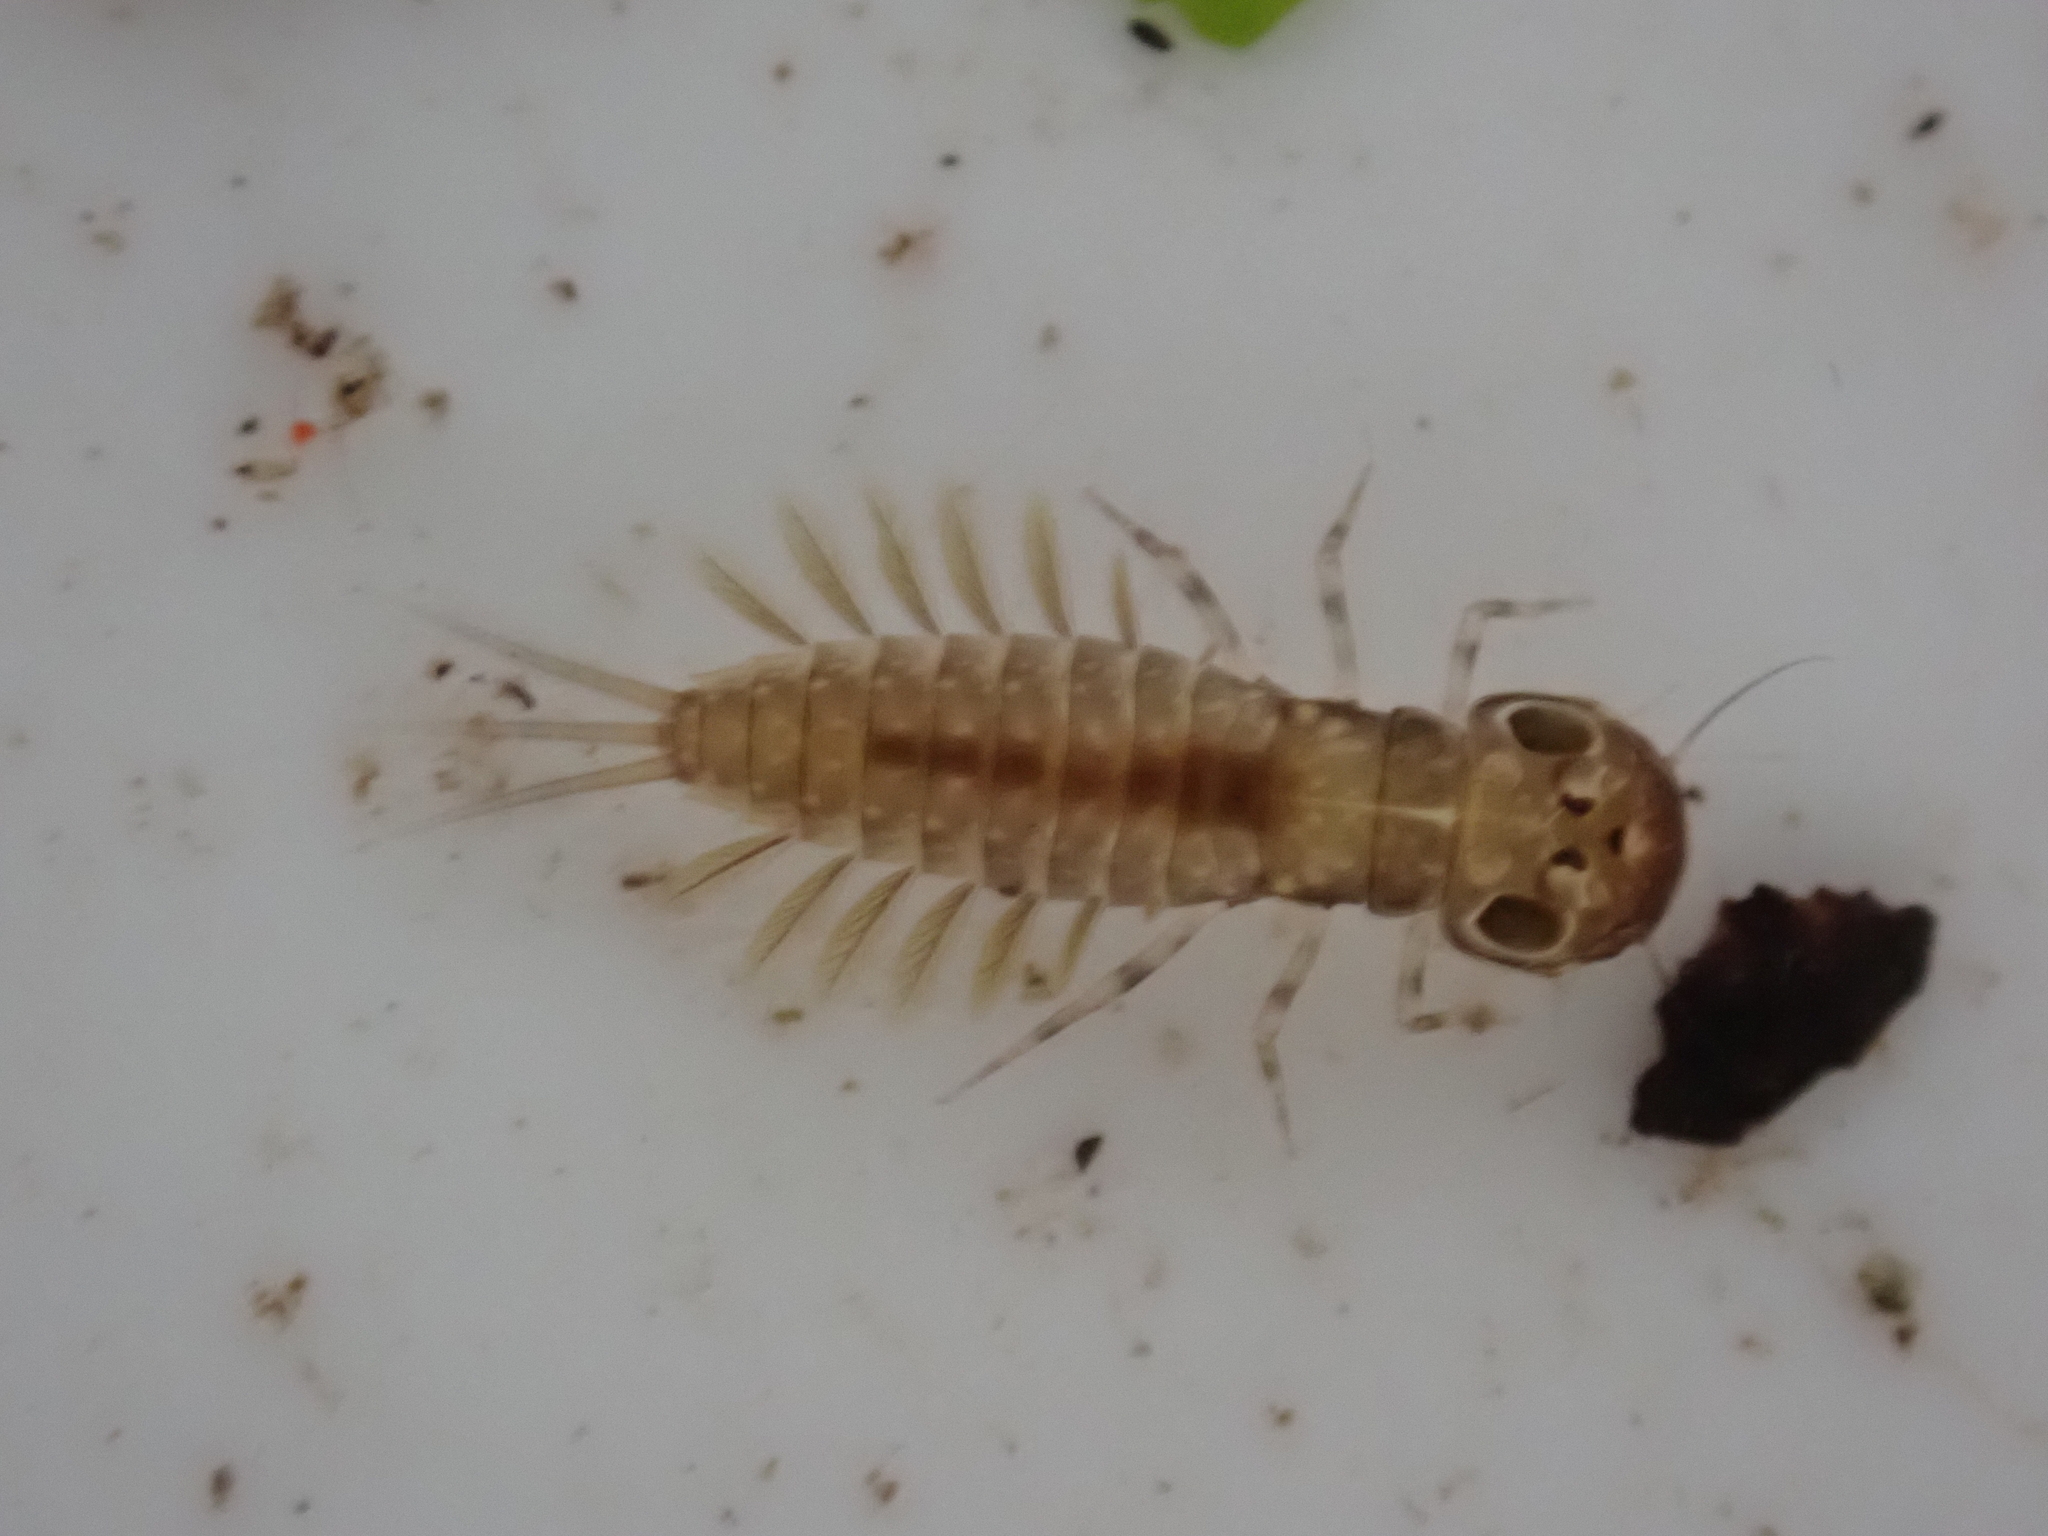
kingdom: Animalia
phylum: Arthropoda
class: Insecta
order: Ephemeroptera
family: Ameletopsidae
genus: Ameletopsis
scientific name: Ameletopsis perscitus
